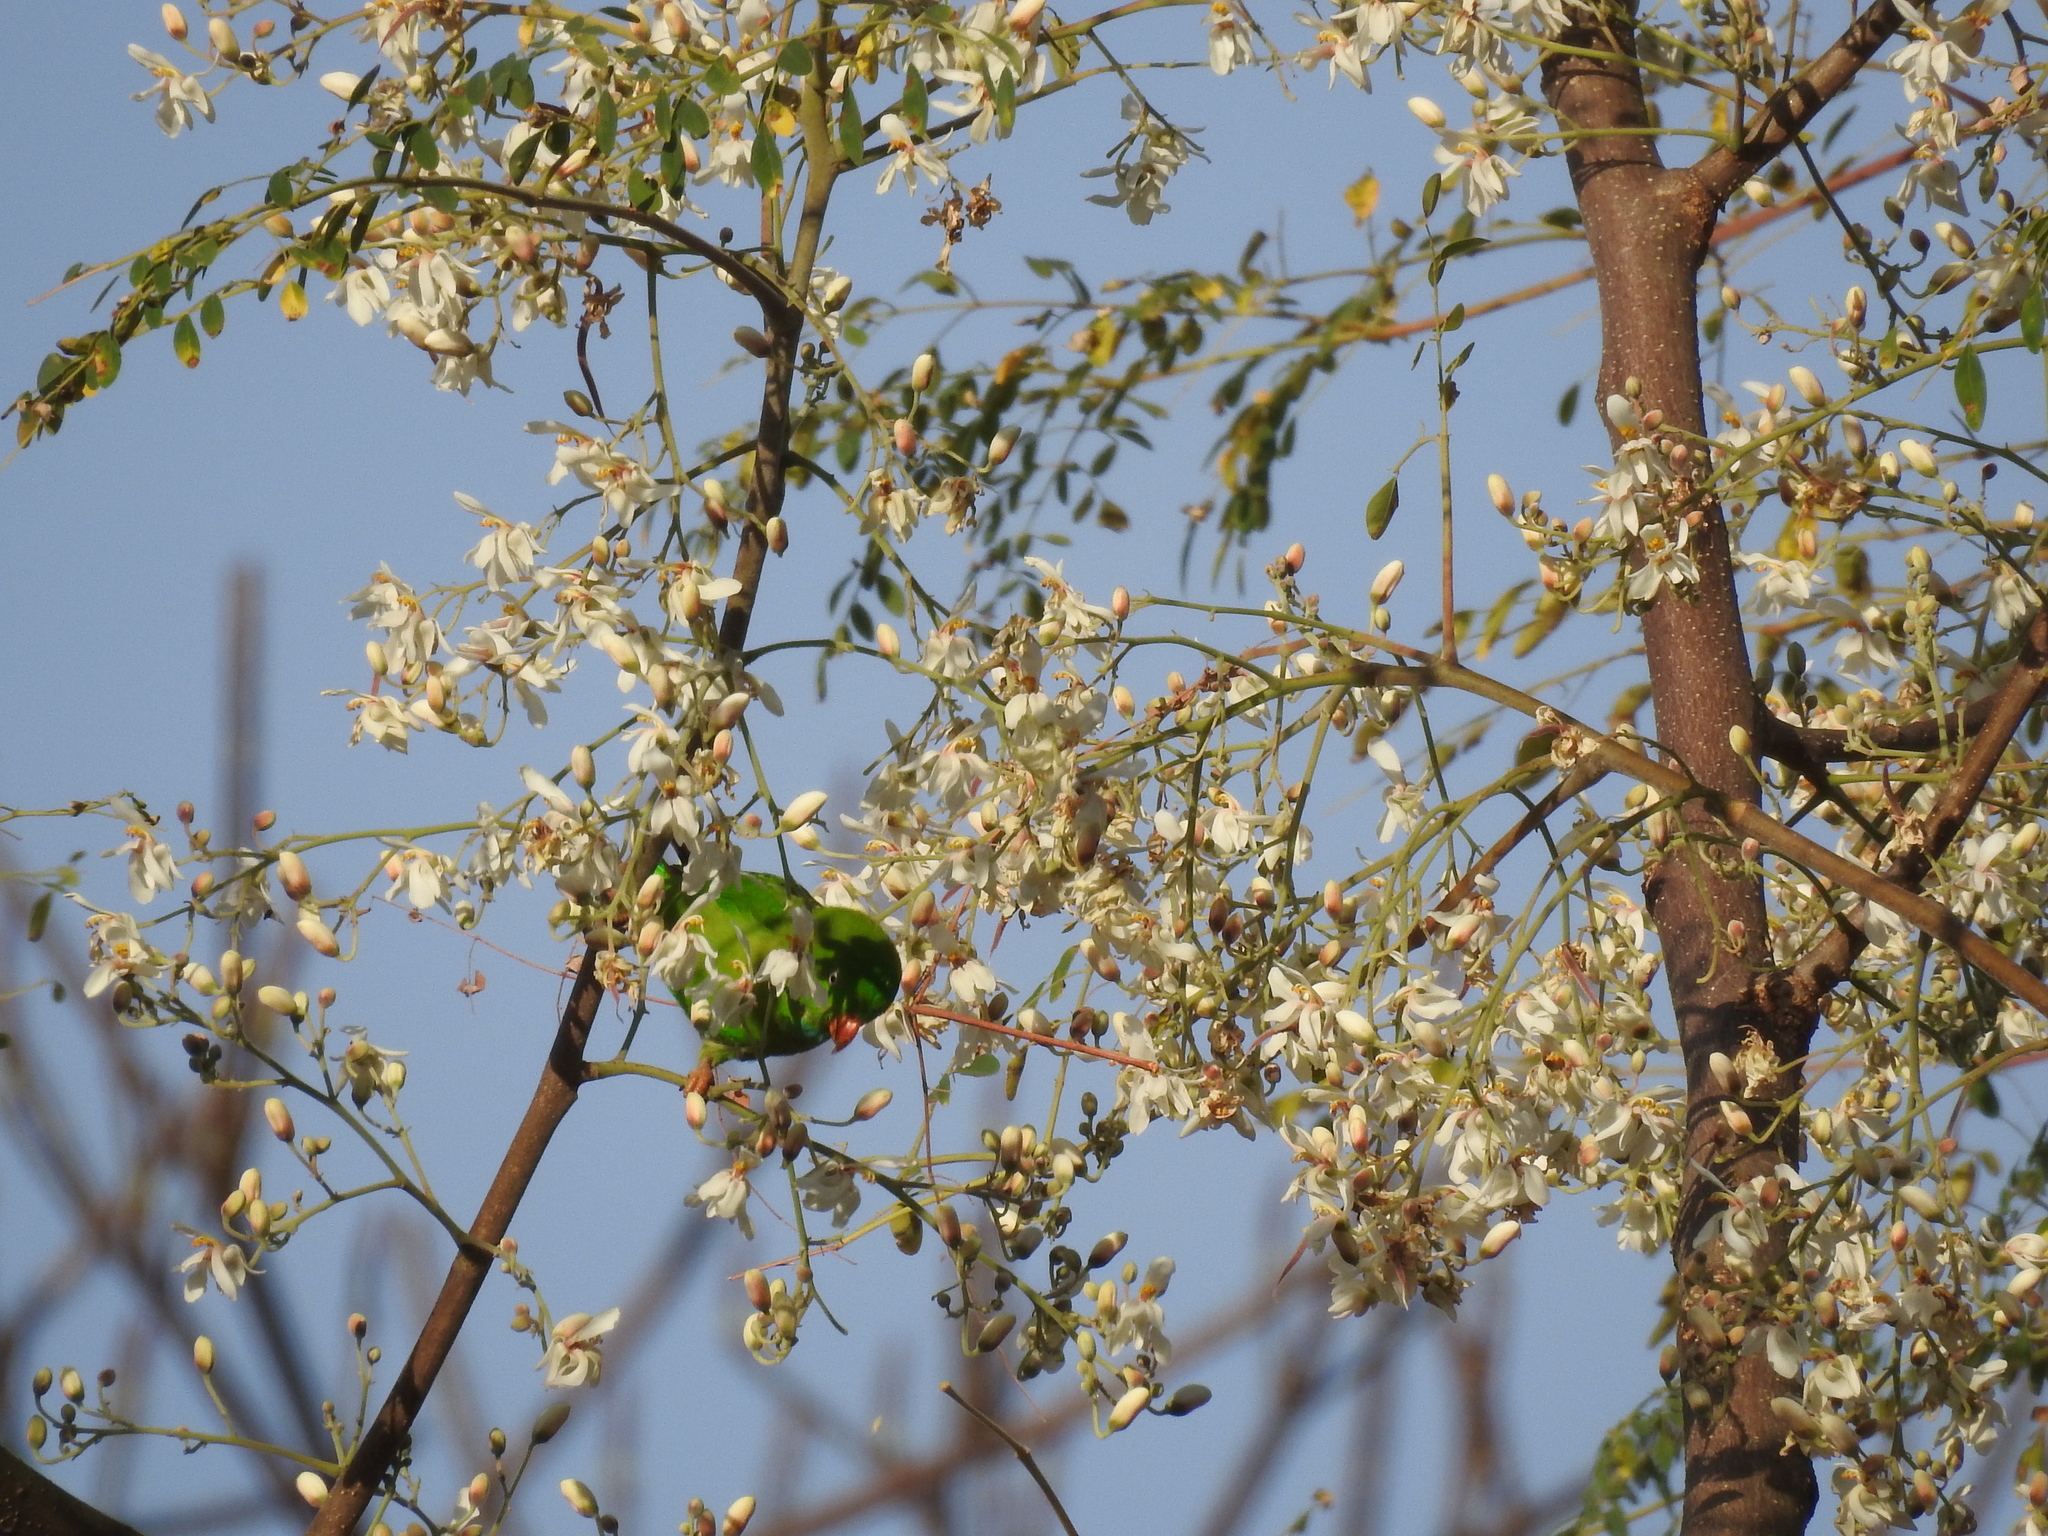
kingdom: Animalia
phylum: Chordata
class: Aves
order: Psittaciformes
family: Psittacidae
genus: Loriculus
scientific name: Loriculus vernalis
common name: Vernal hanging parrot
